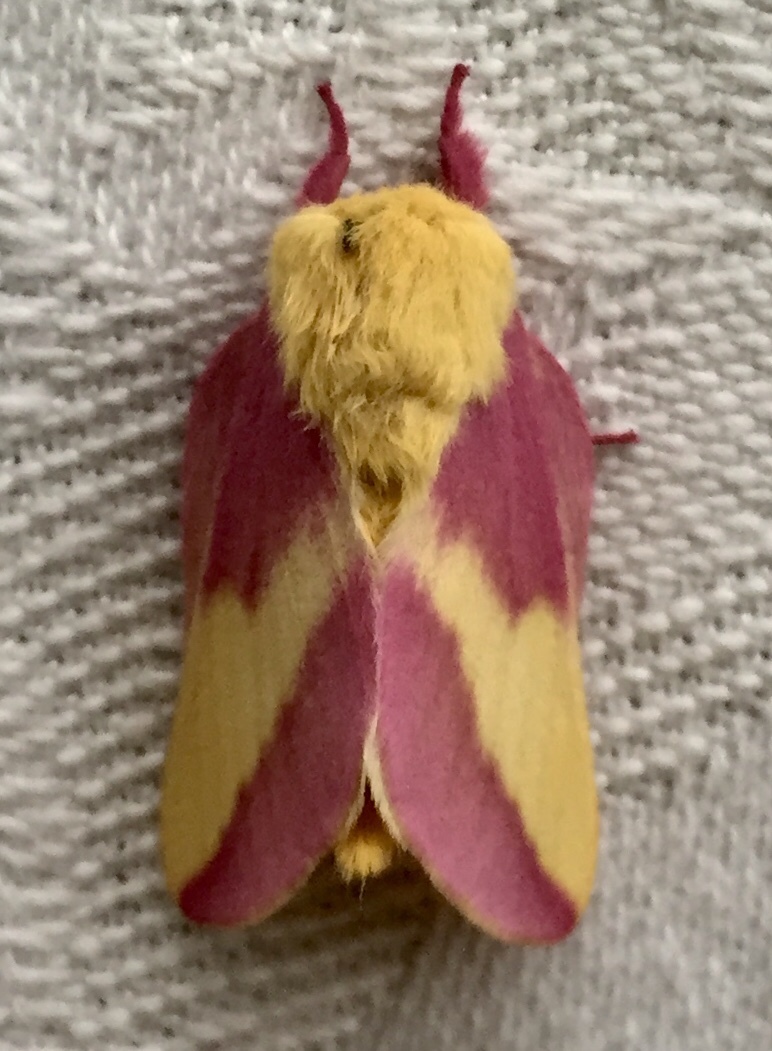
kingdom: Animalia
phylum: Arthropoda
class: Insecta
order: Lepidoptera
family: Saturniidae
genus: Dryocampa
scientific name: Dryocampa rubicunda
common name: Rosy maple moth
